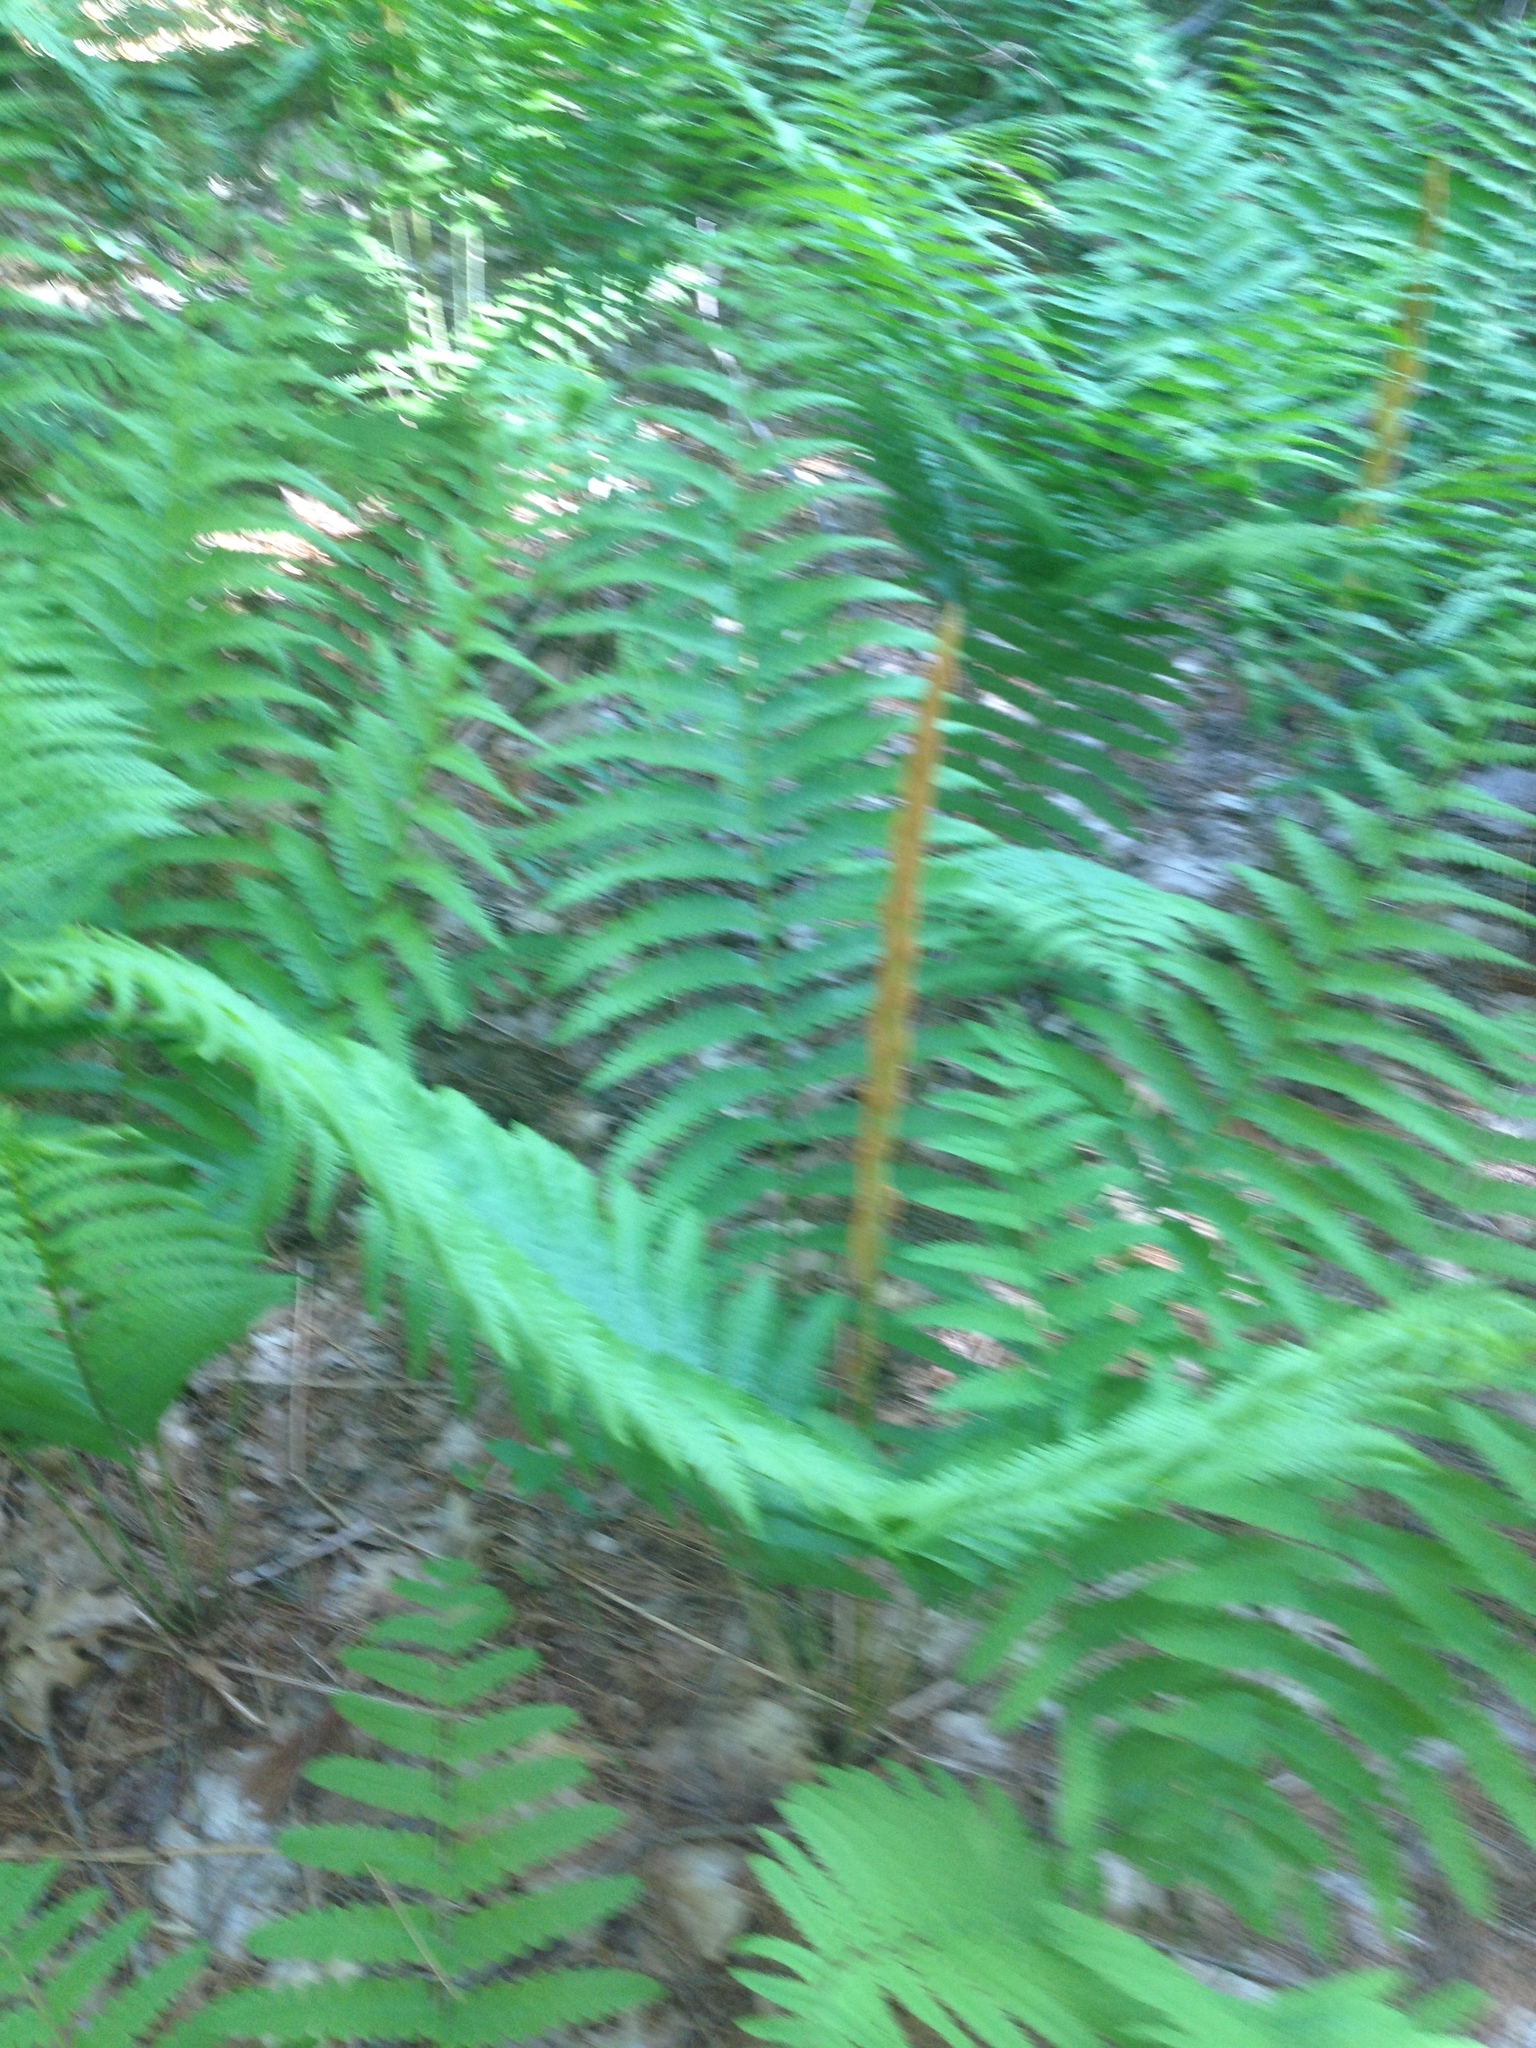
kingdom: Plantae
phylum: Tracheophyta
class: Polypodiopsida
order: Osmundales
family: Osmundaceae
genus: Osmundastrum
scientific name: Osmundastrum cinnamomeum
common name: Cinnamon fern
